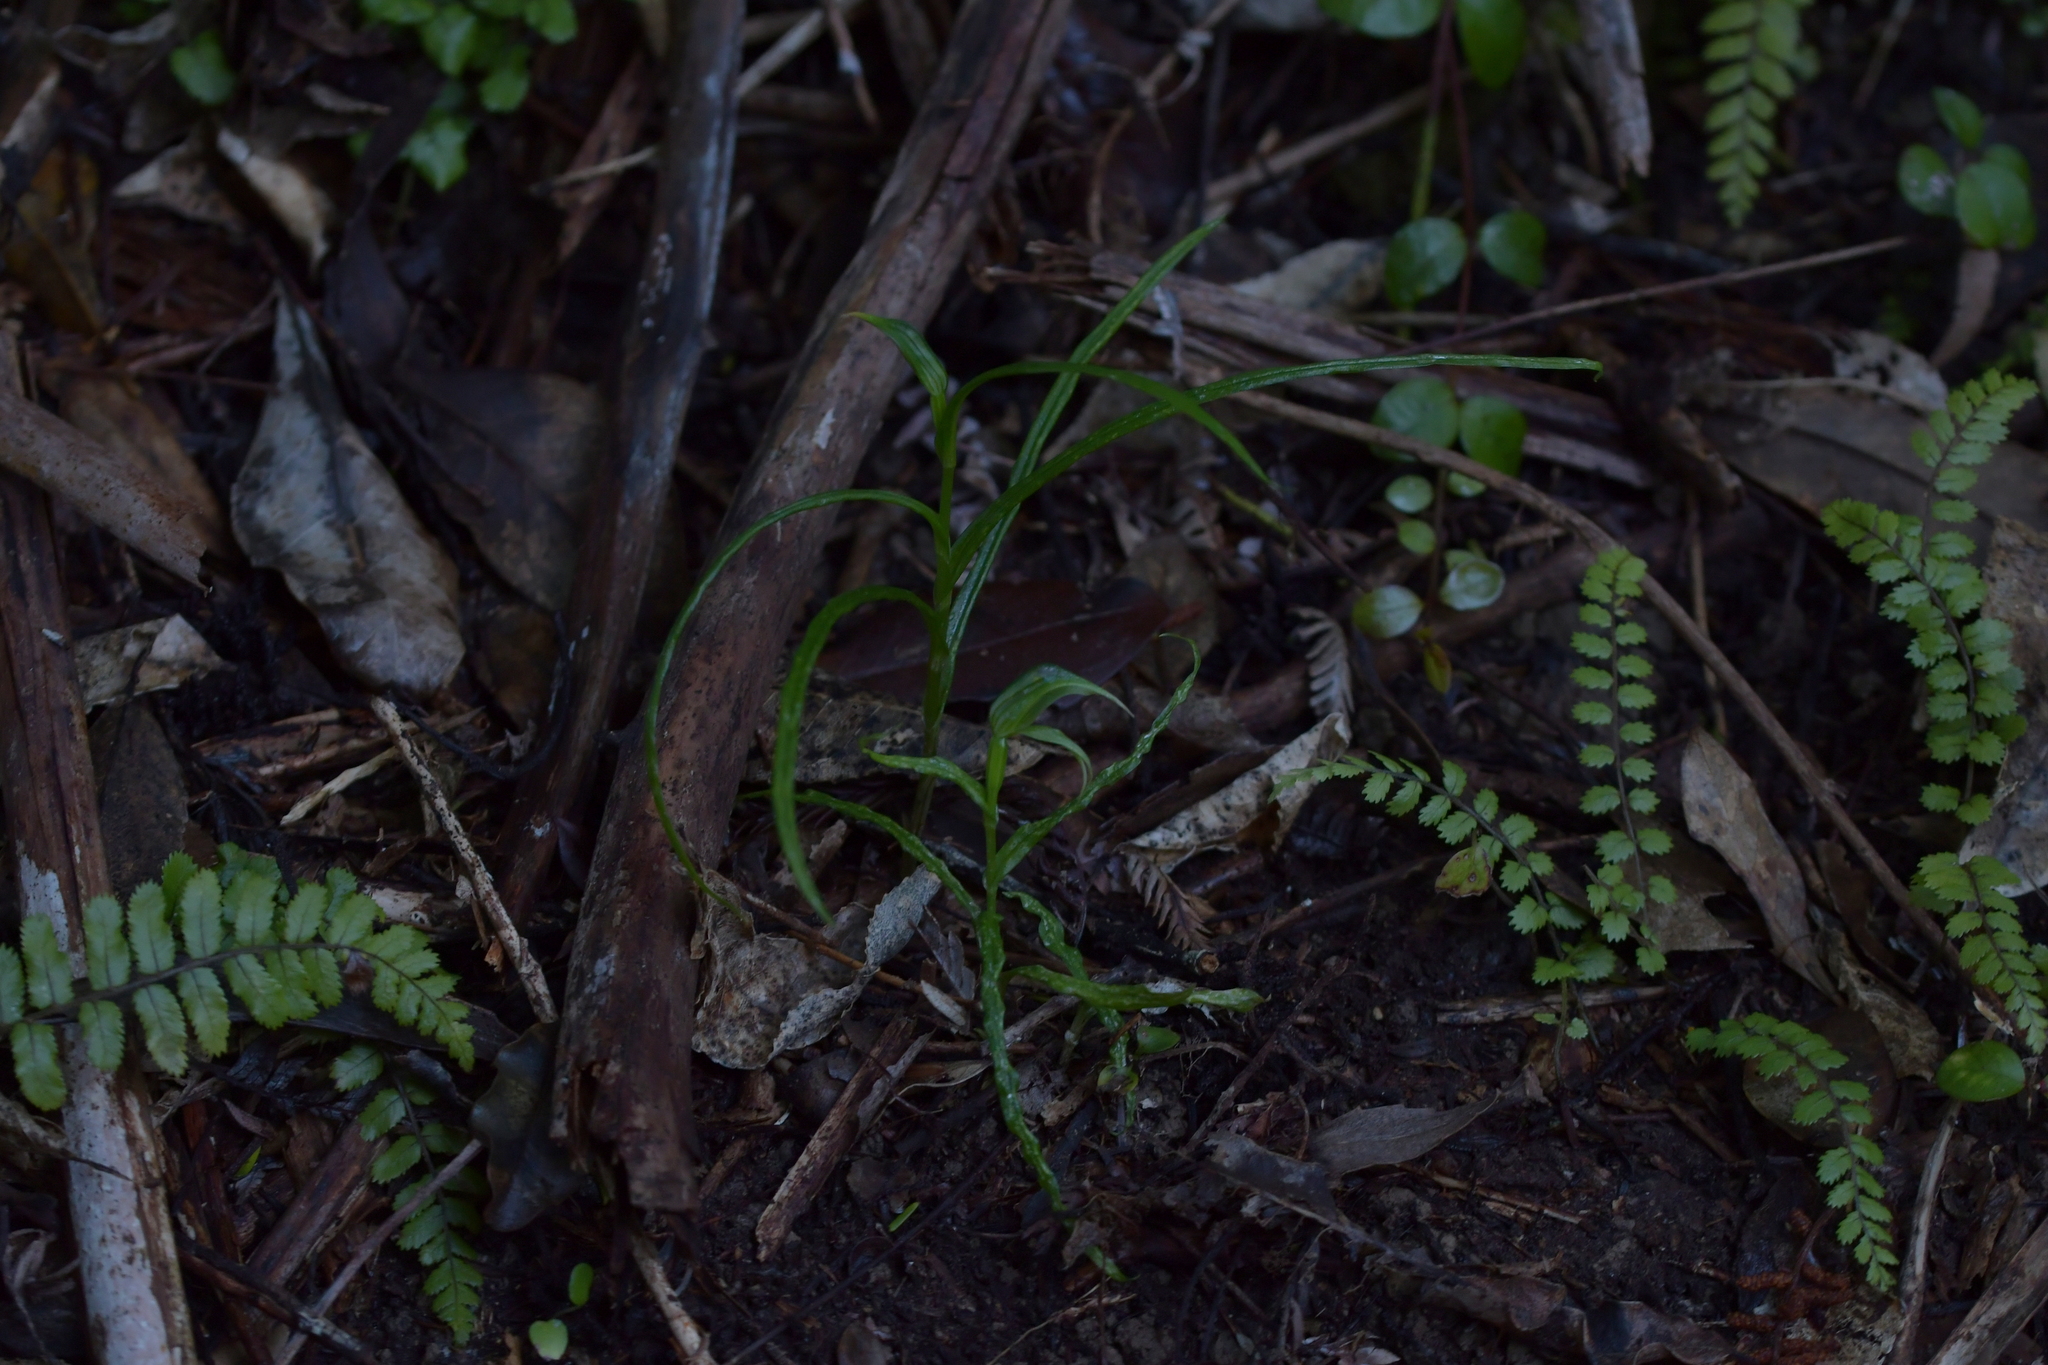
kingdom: Plantae
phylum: Tracheophyta
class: Liliopsida
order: Asparagales
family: Orchidaceae
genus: Pterostylis
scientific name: Pterostylis porrecta
